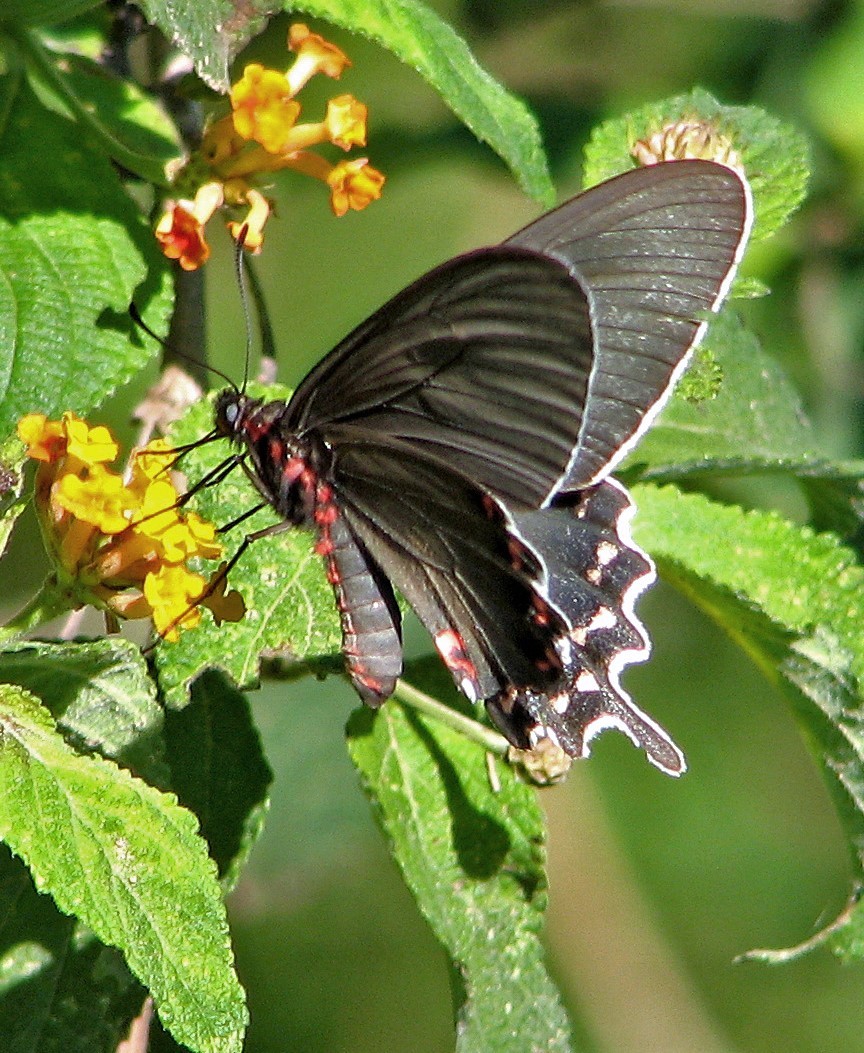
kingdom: Animalia
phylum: Arthropoda
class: Insecta
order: Lepidoptera
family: Papilionidae
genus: Parides
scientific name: Parides bunichus
